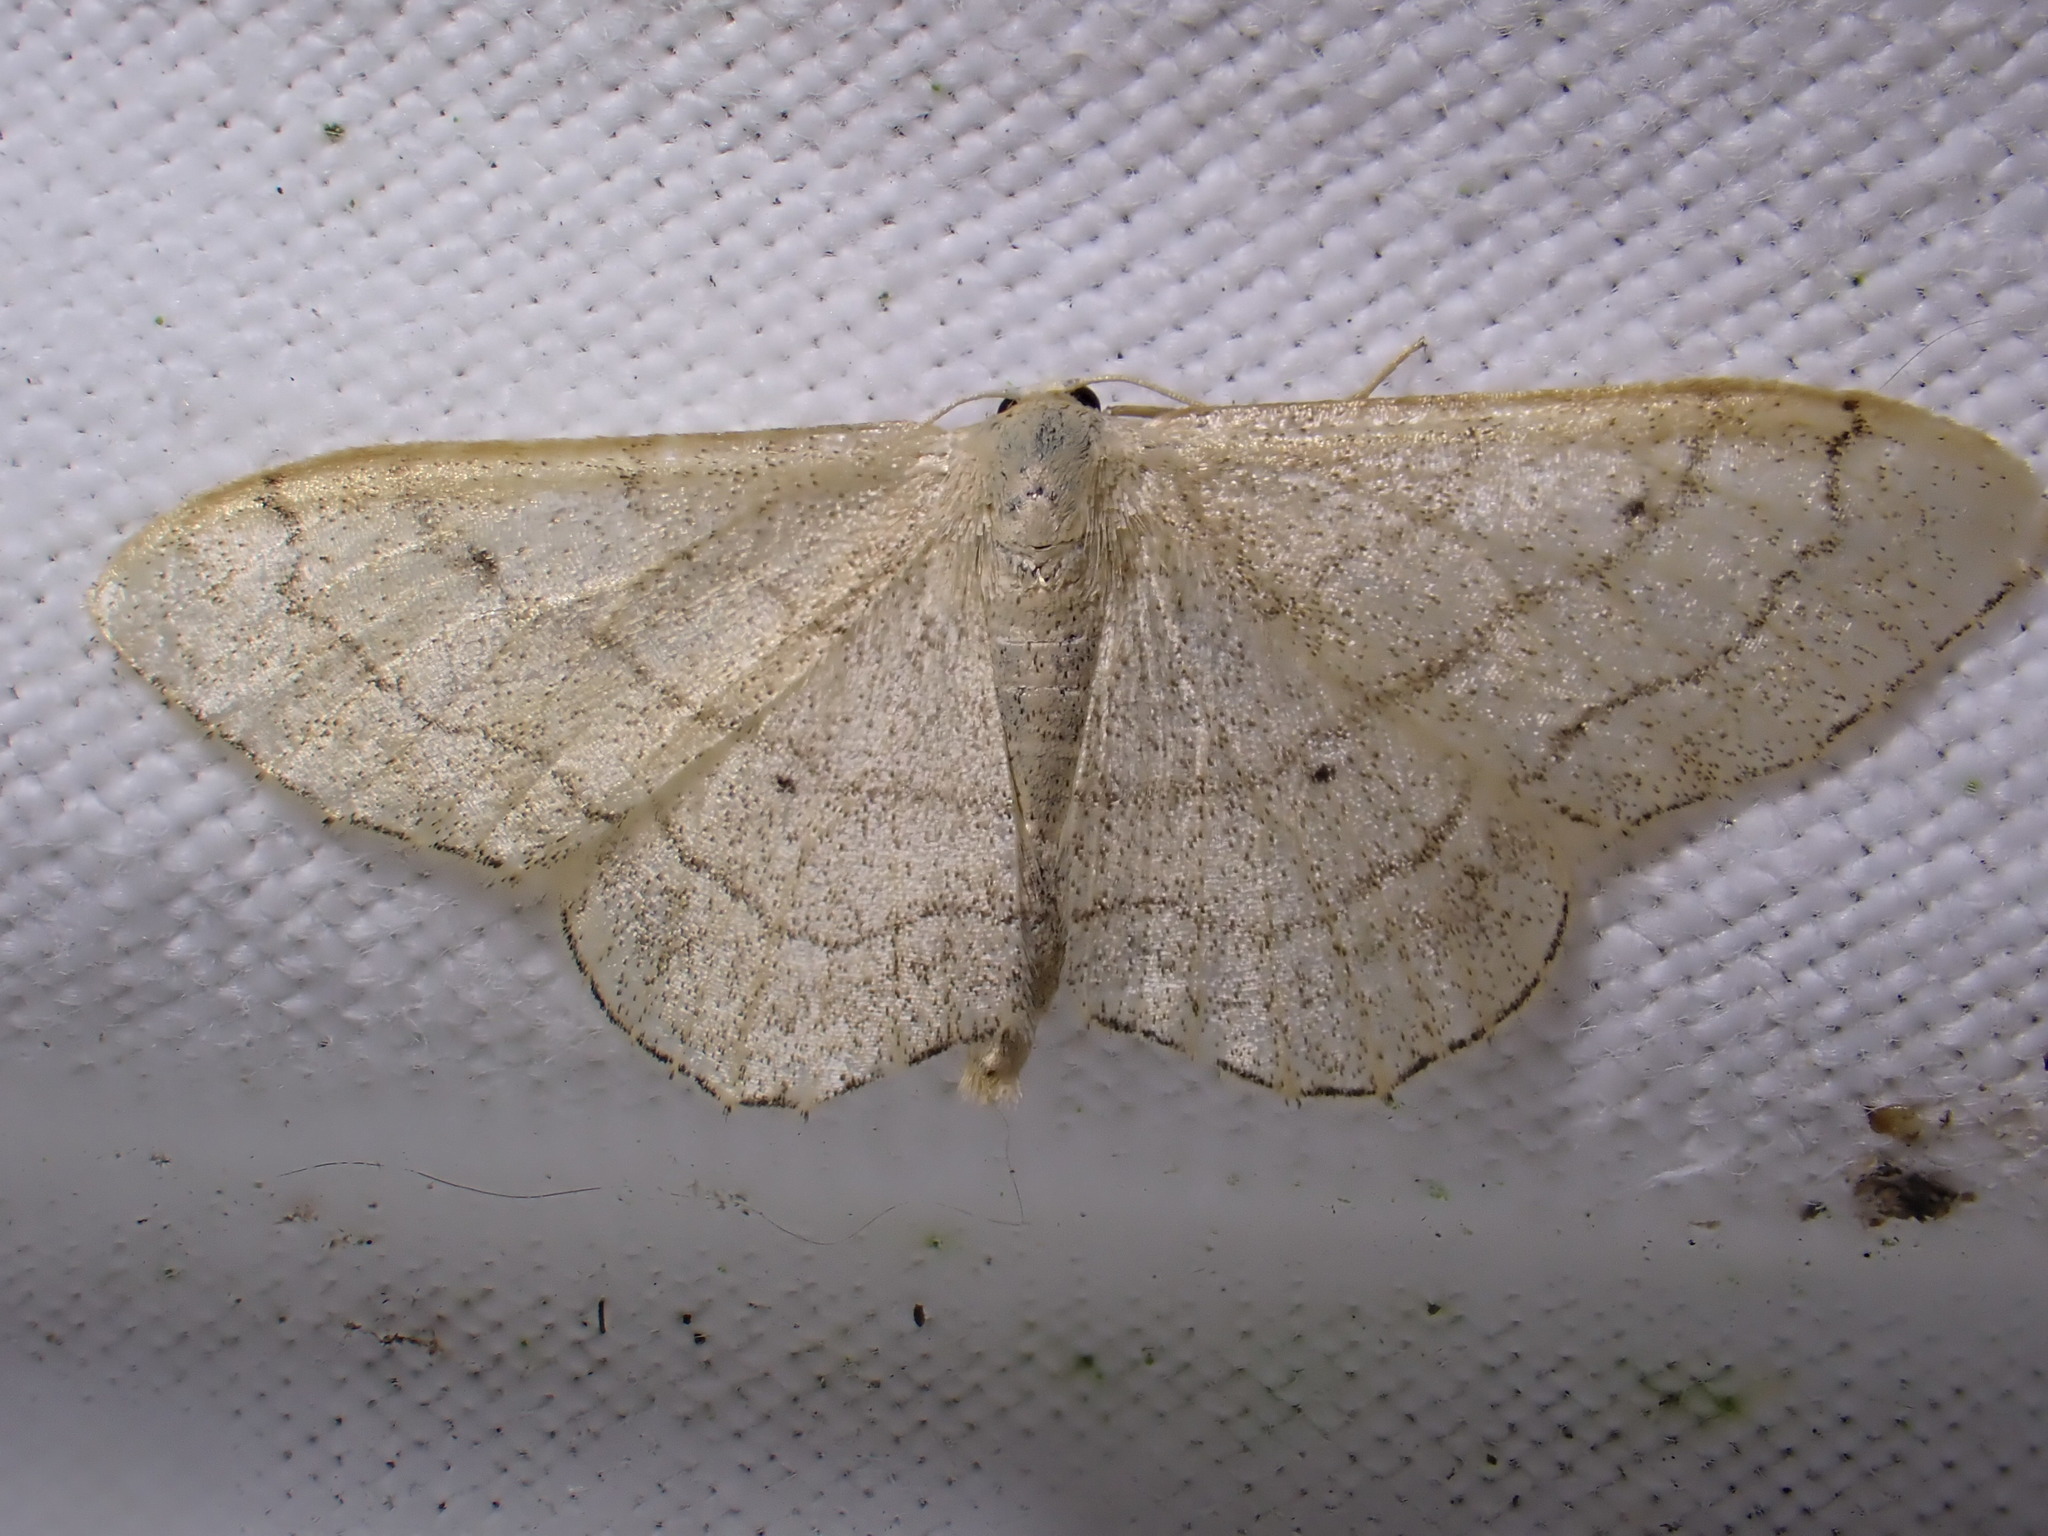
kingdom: Animalia
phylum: Arthropoda
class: Insecta
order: Lepidoptera
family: Geometridae
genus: Idaea
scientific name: Idaea aversata
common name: Riband wave
